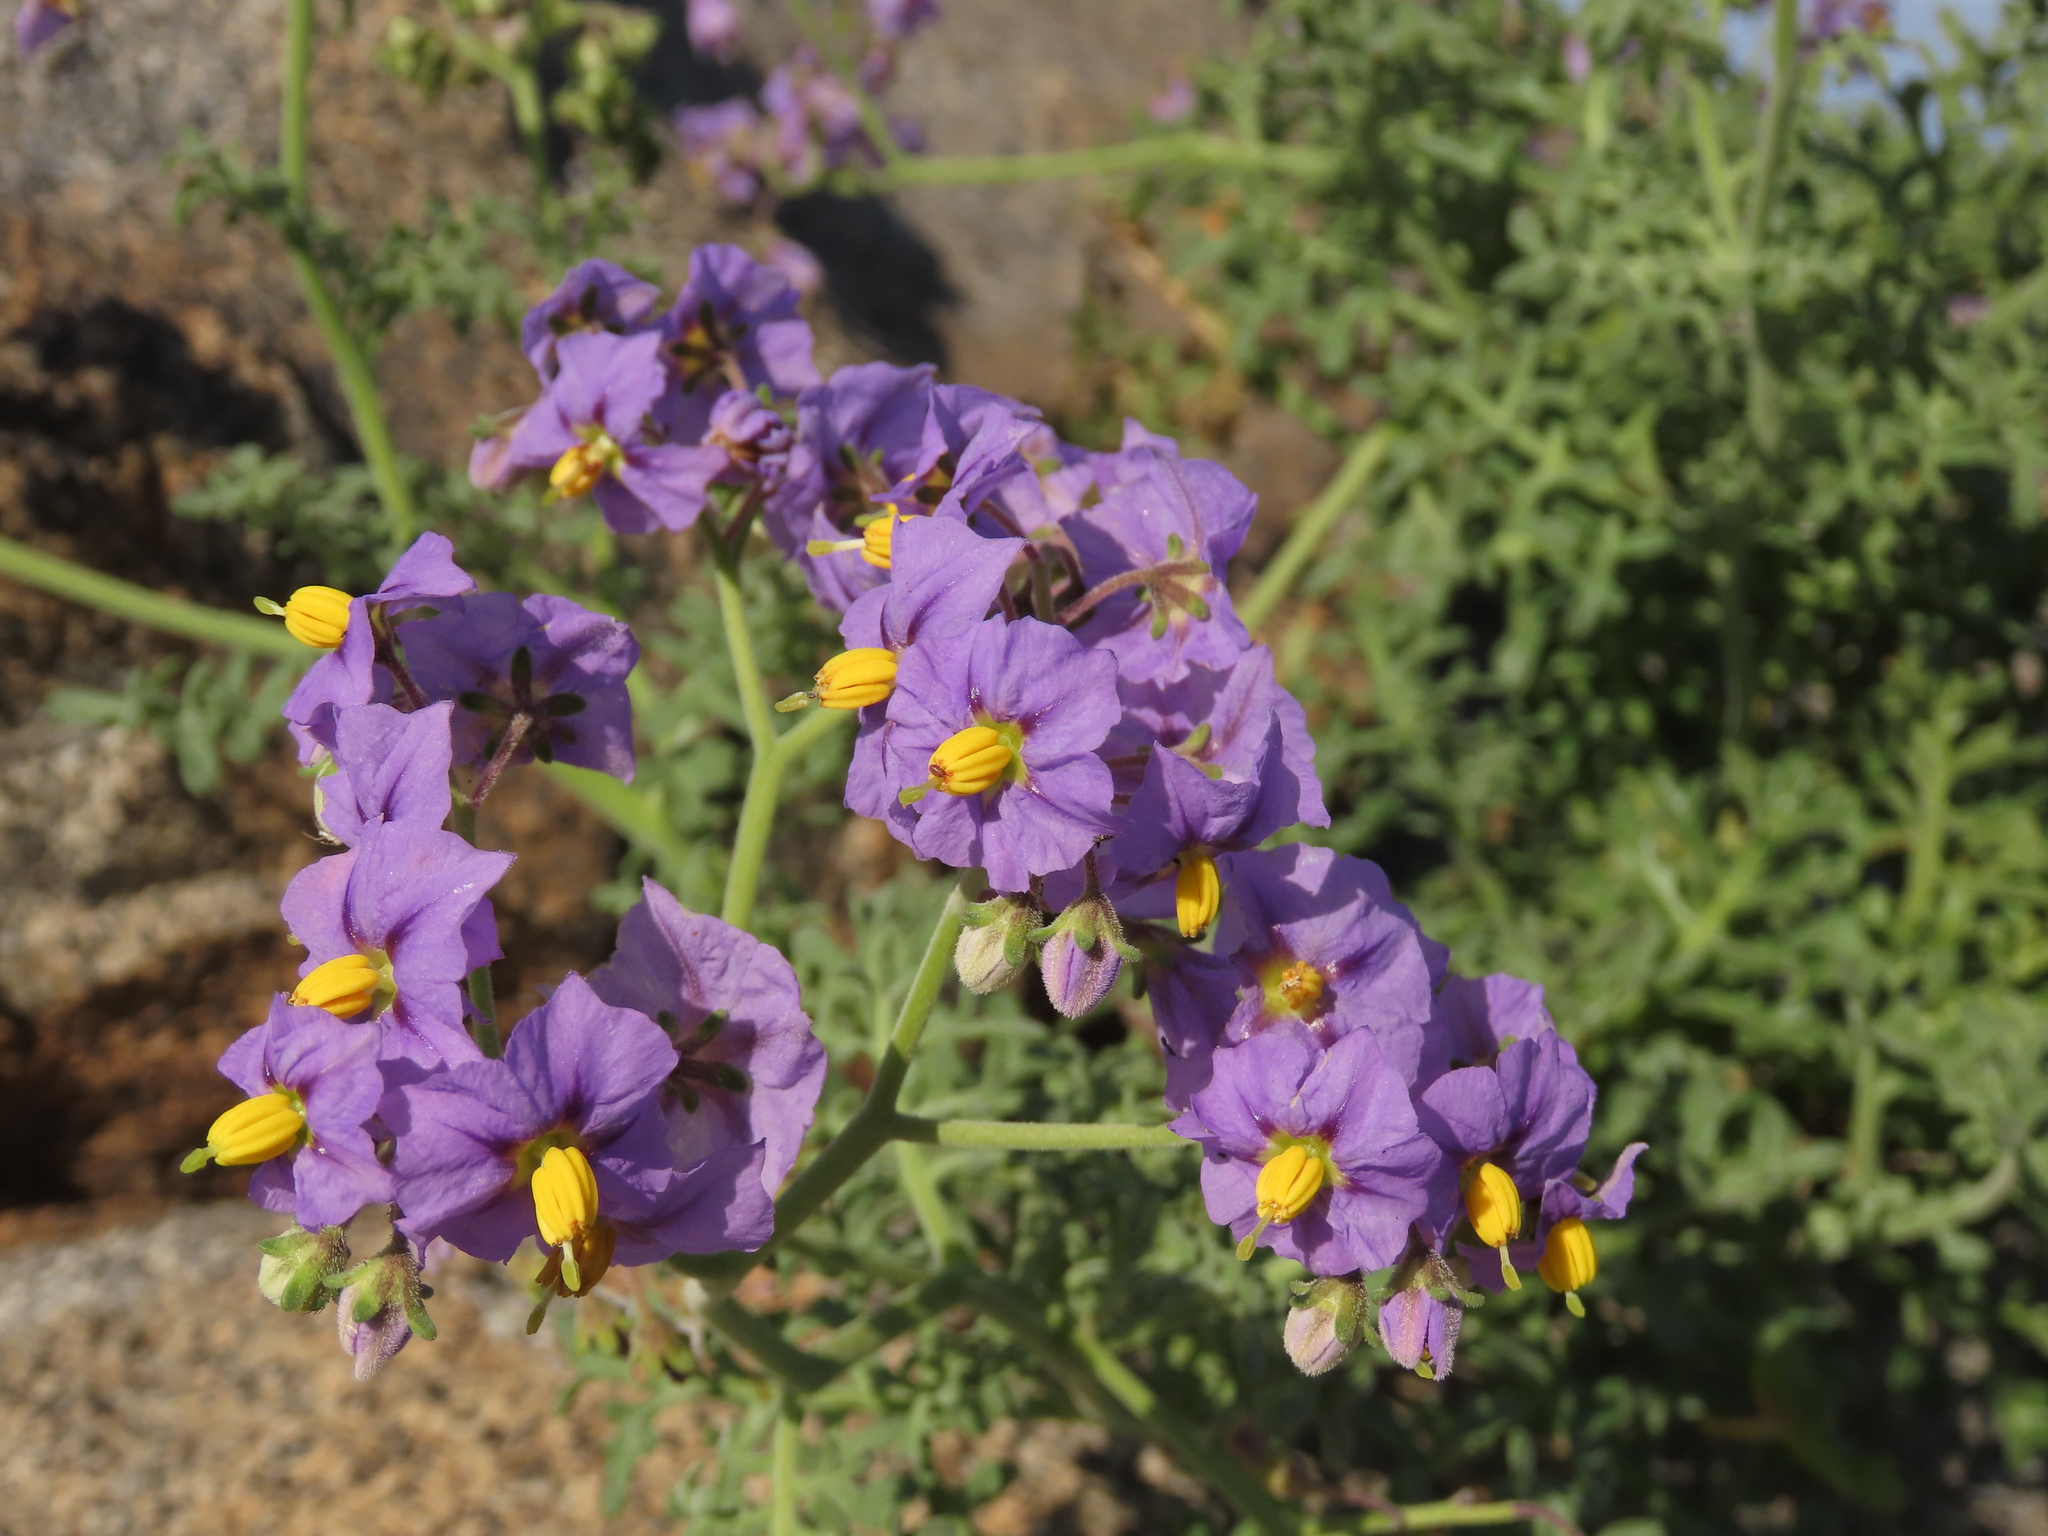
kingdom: Plantae
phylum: Tracheophyta
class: Magnoliopsida
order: Solanales
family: Solanaceae
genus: Solanum
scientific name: Solanum remyanum
